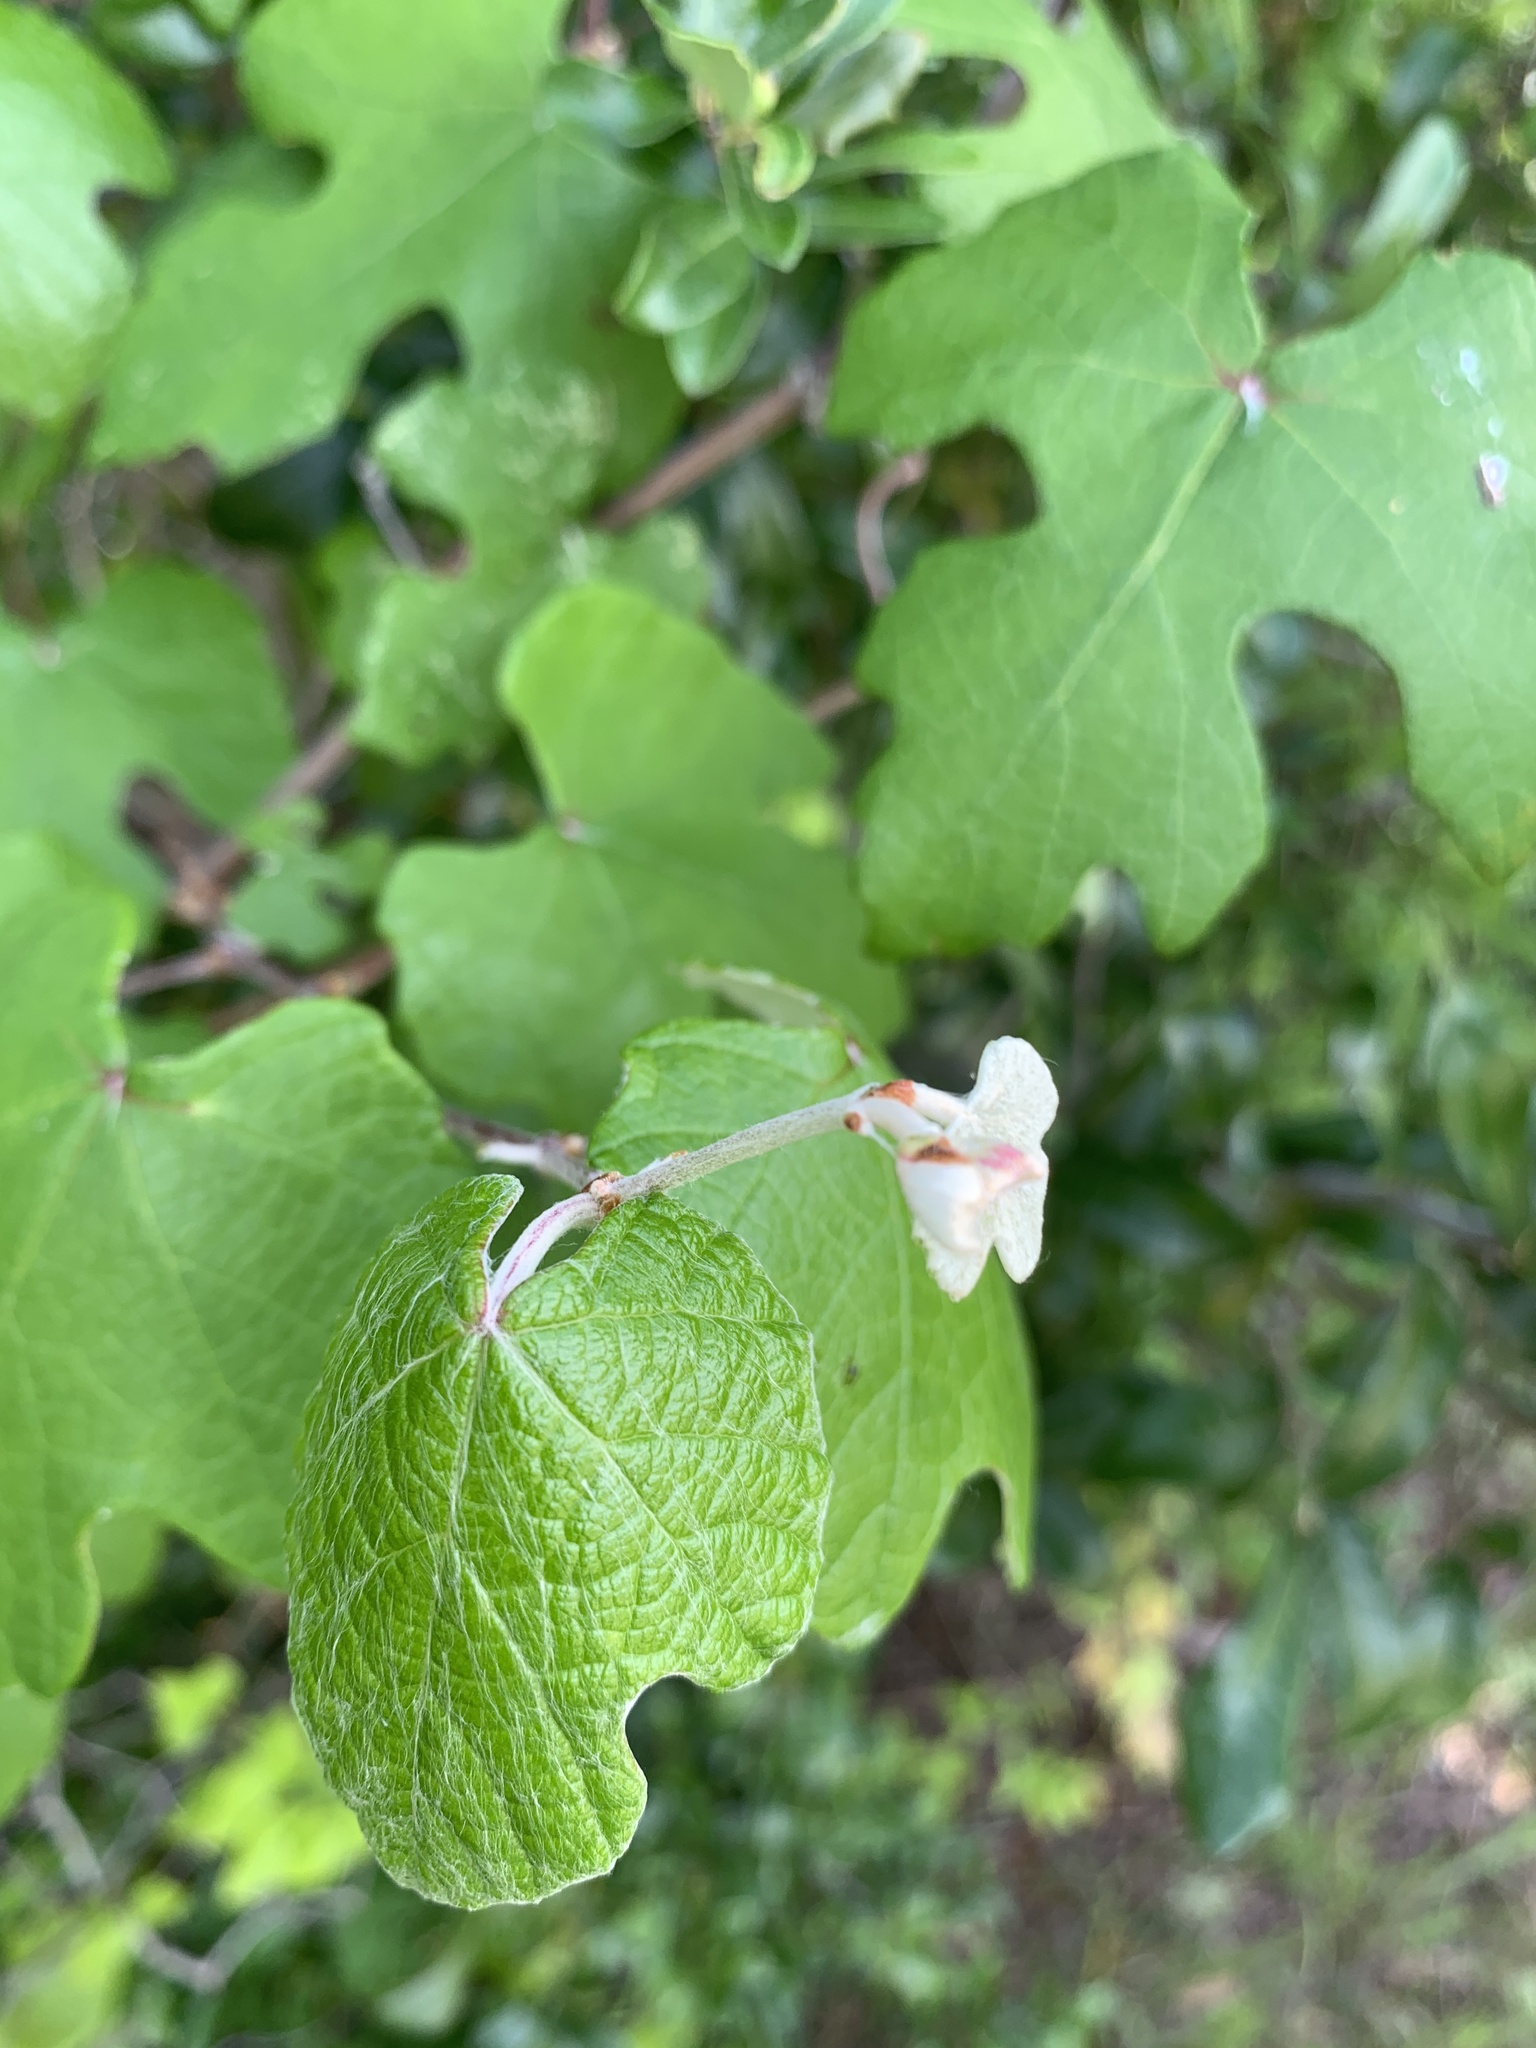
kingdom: Plantae
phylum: Tracheophyta
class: Magnoliopsida
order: Vitales
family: Vitaceae
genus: Vitis
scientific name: Vitis mustangensis
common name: Mustang grape
